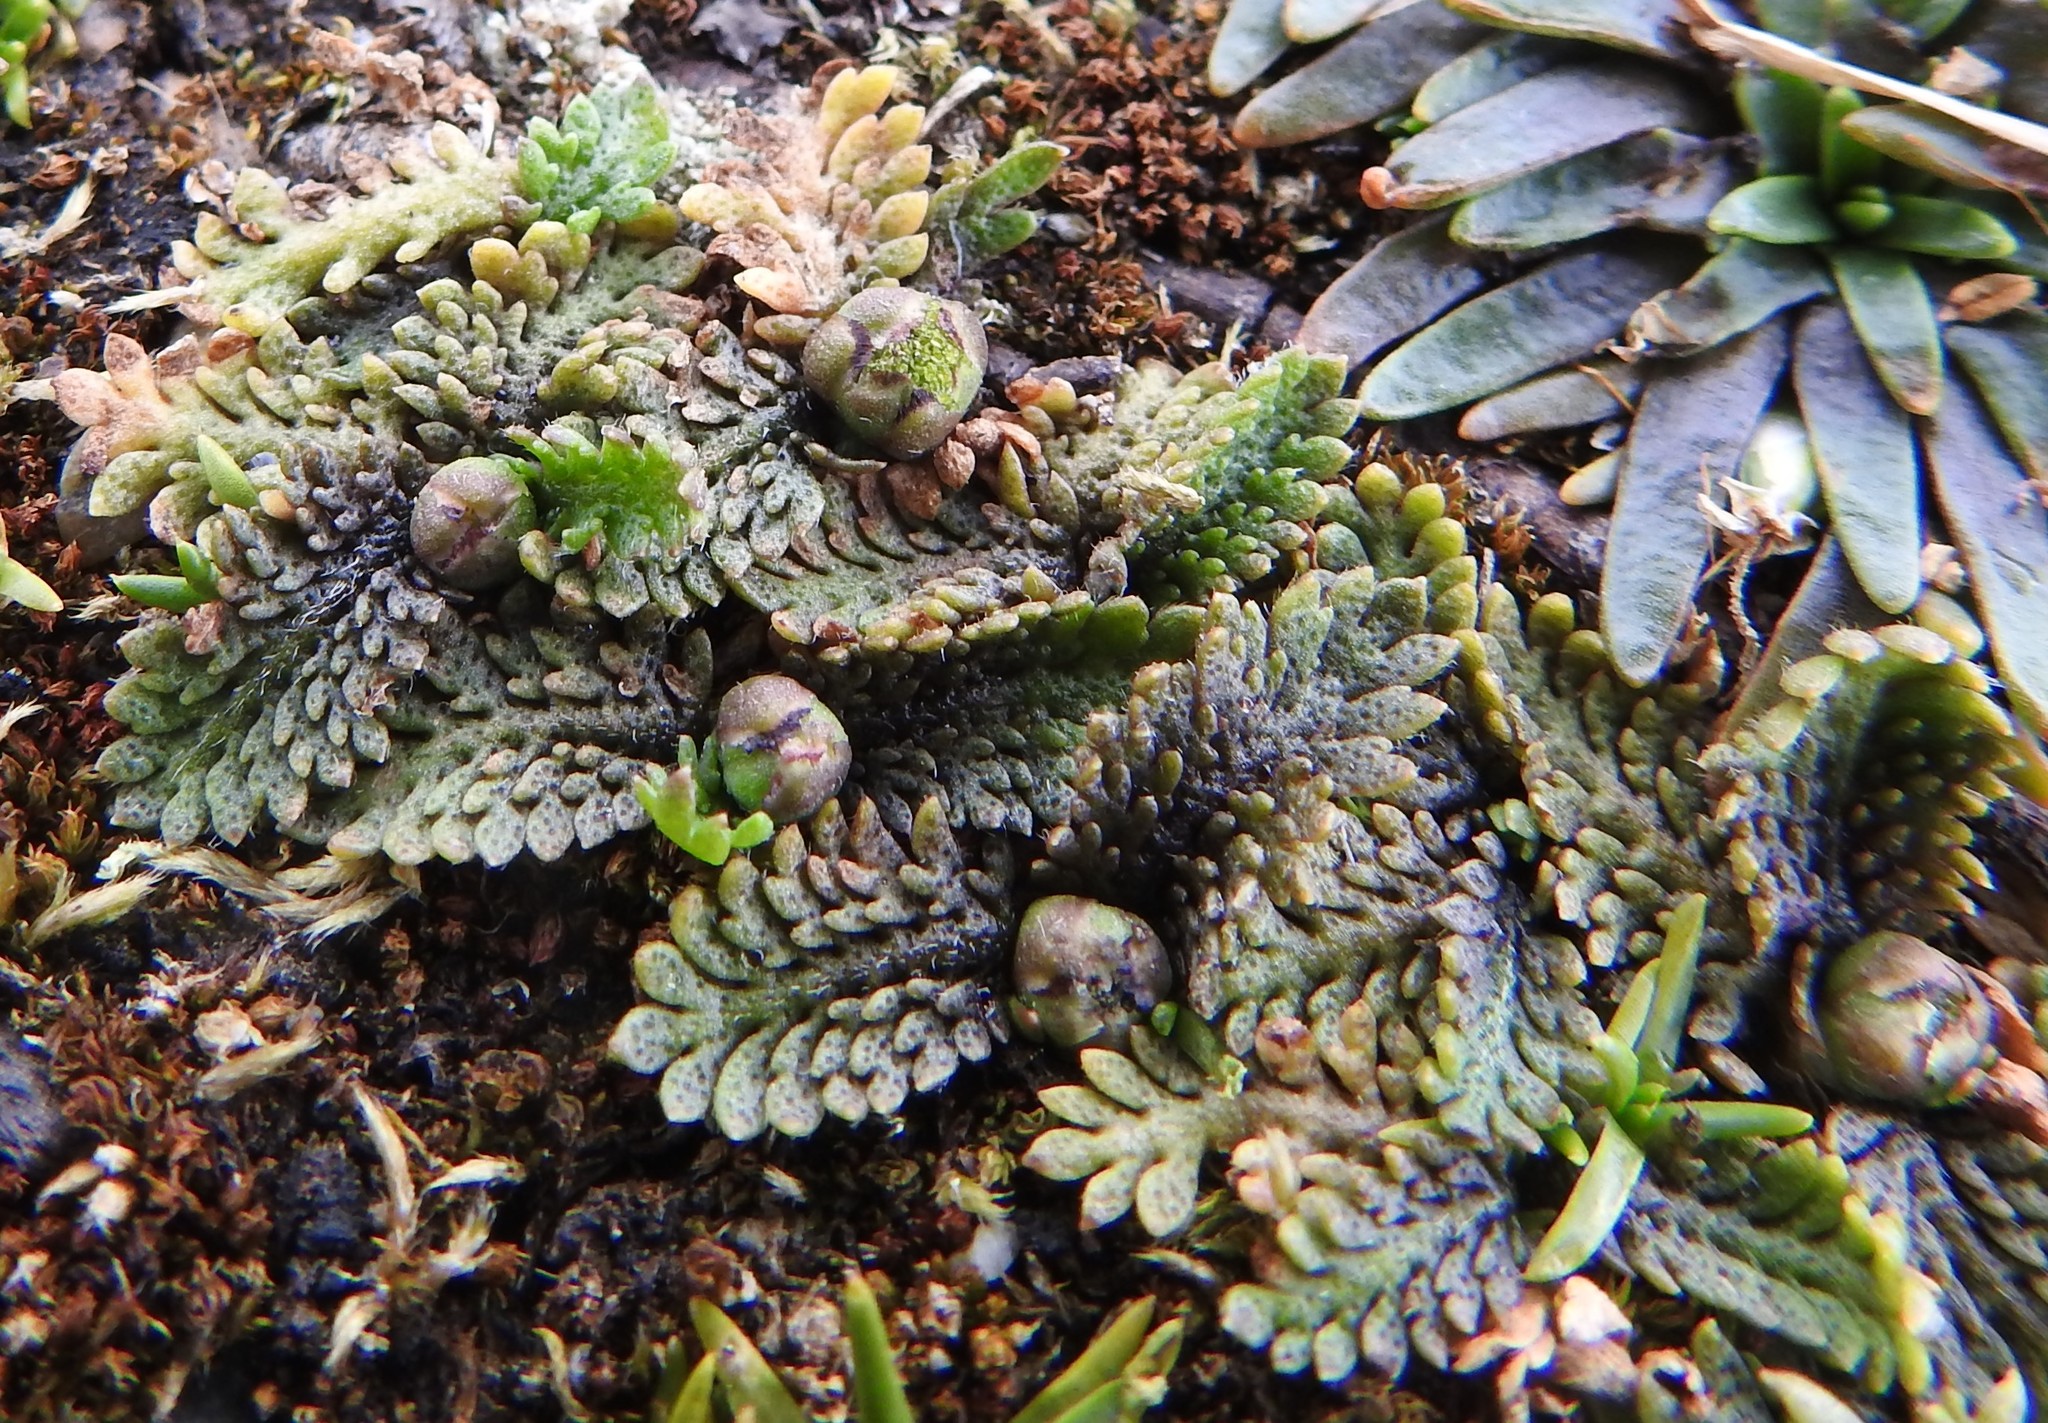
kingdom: Plantae
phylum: Tracheophyta
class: Magnoliopsida
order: Asterales
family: Asteraceae
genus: Leptinella
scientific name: Leptinella scariosa
